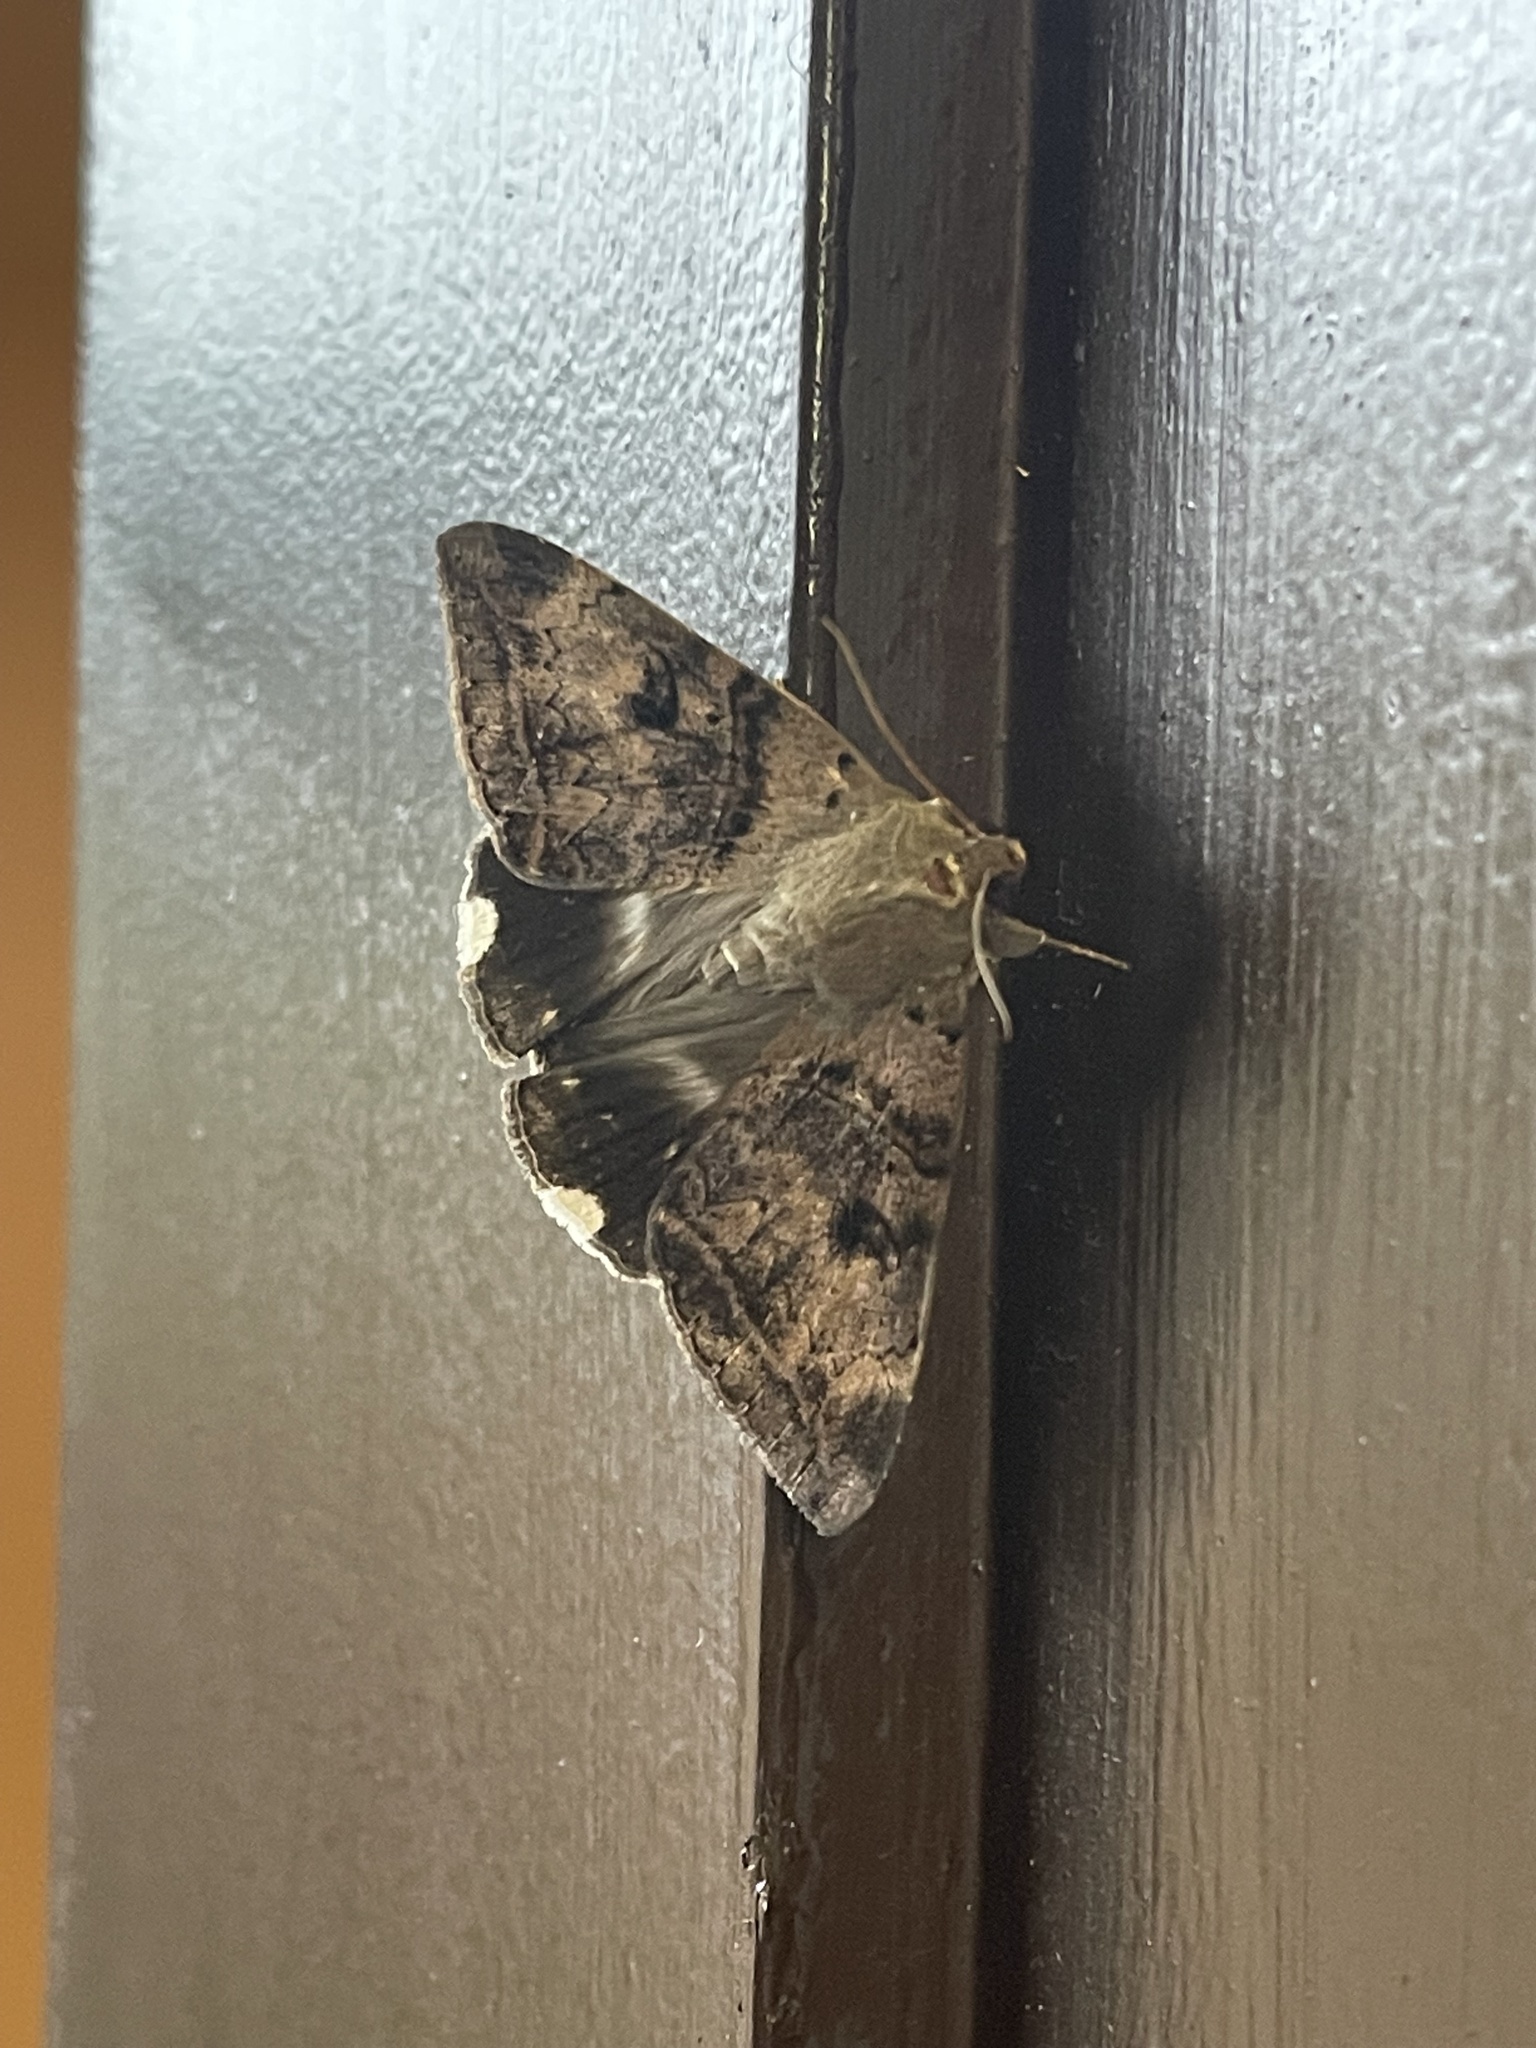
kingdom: Animalia
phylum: Arthropoda
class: Insecta
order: Lepidoptera
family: Erebidae
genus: Achaea
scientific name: Achaea lienardi
